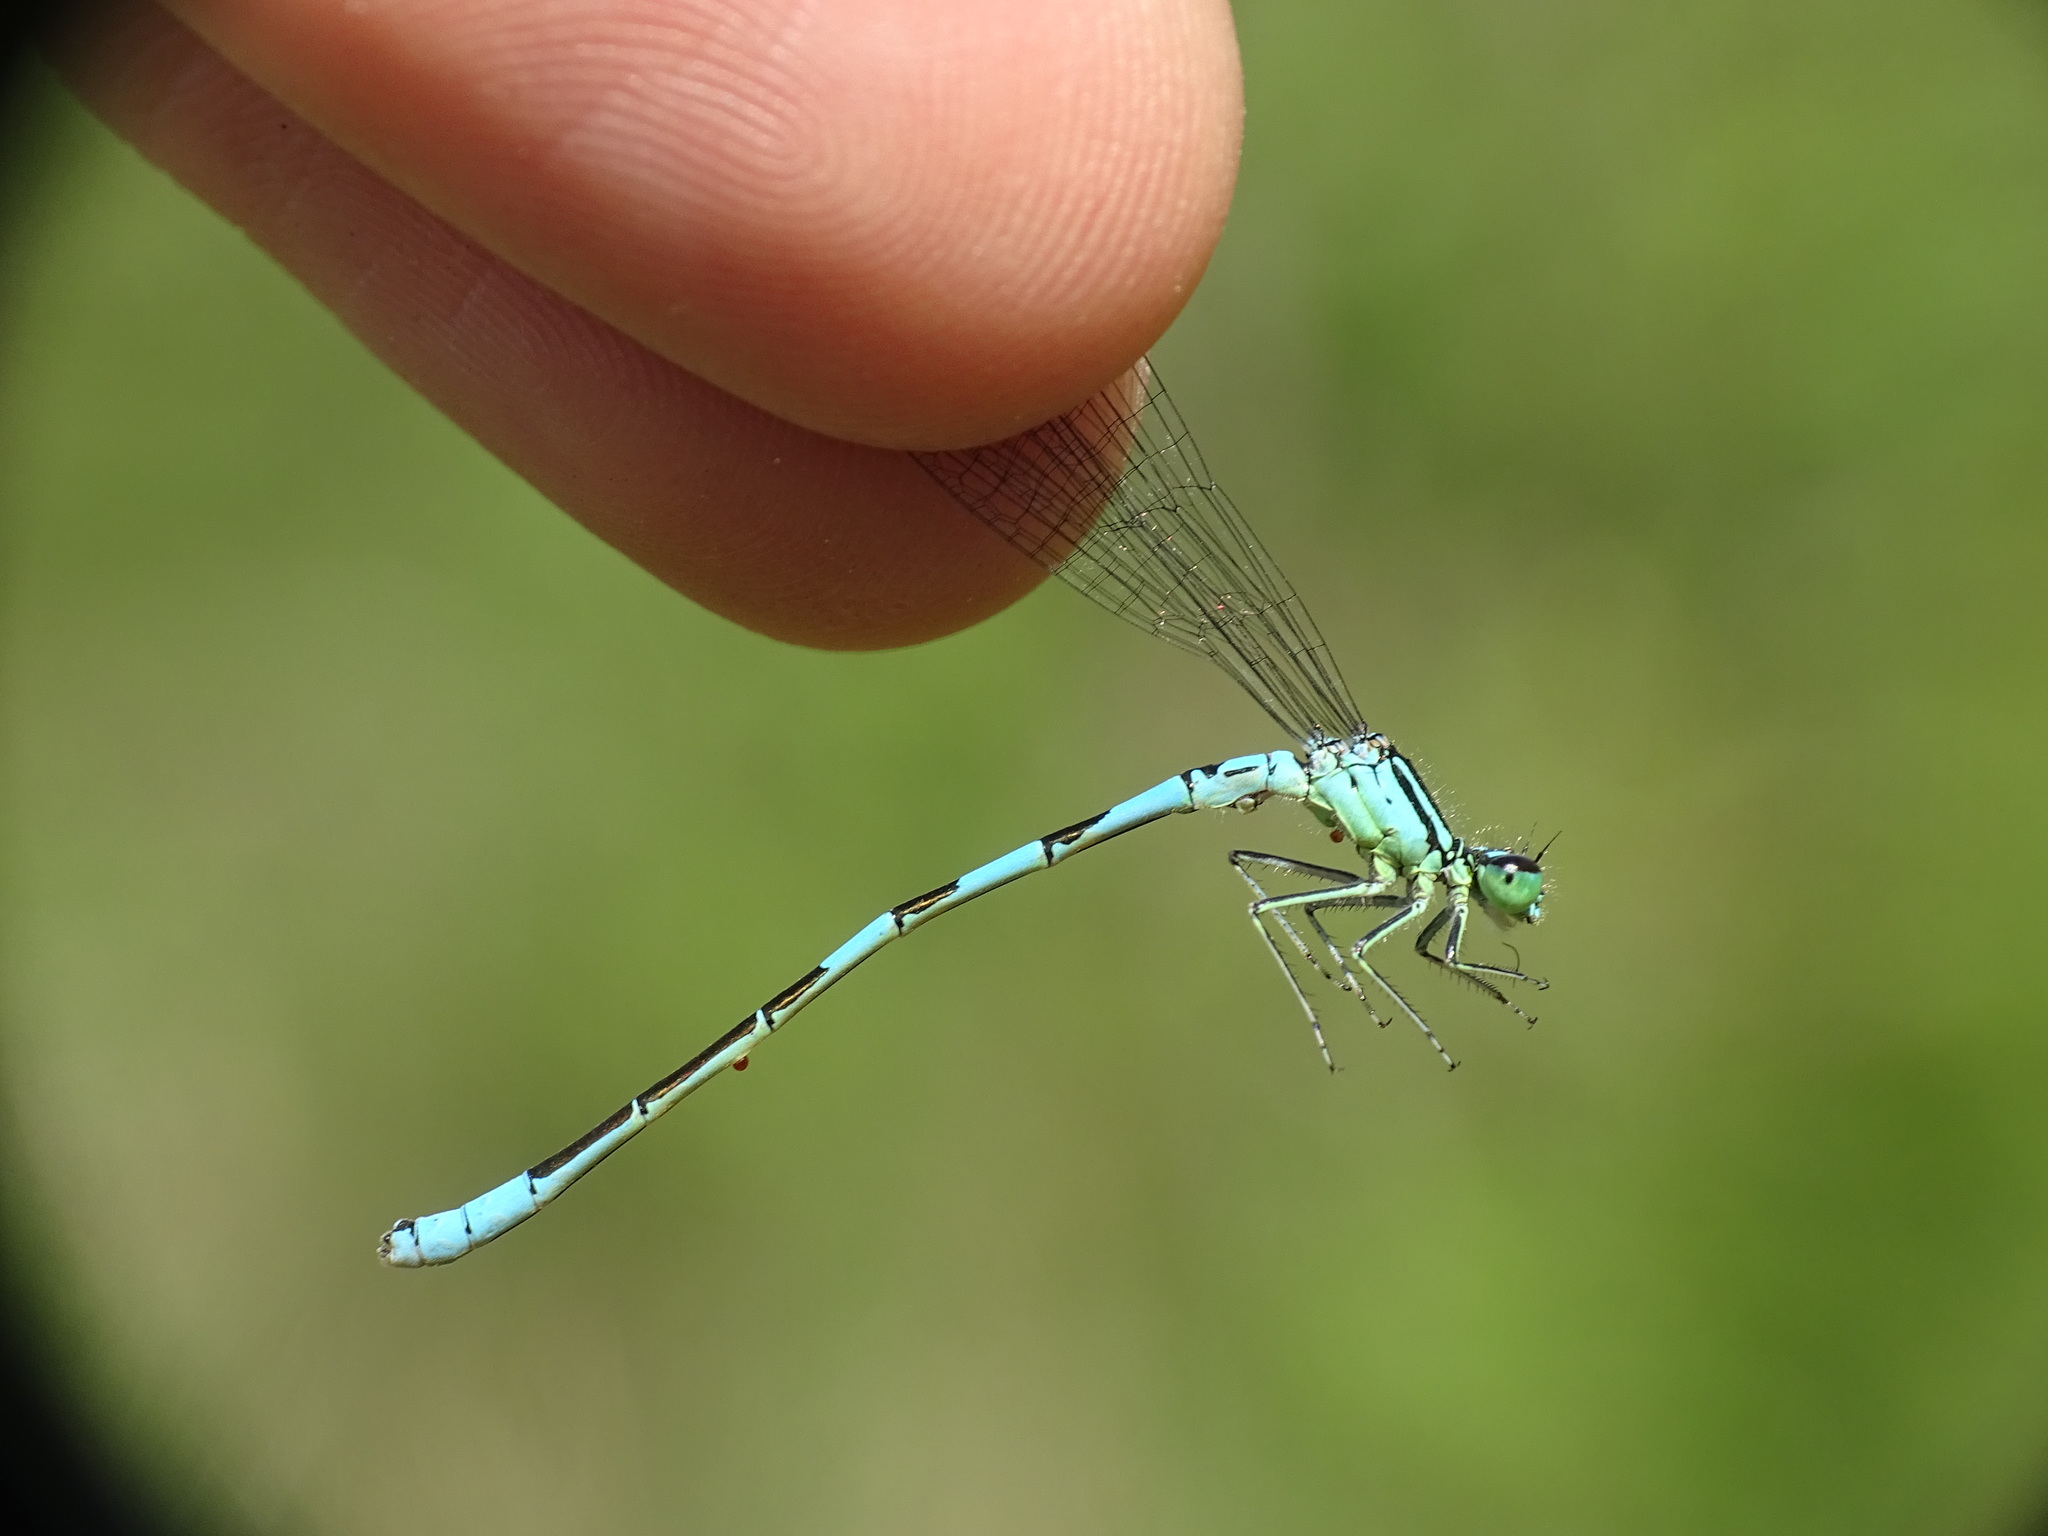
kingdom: Animalia
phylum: Arthropoda
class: Insecta
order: Odonata
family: Coenagrionidae
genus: Coenagrion
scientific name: Coenagrion resolutum
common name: Taiga bluet
